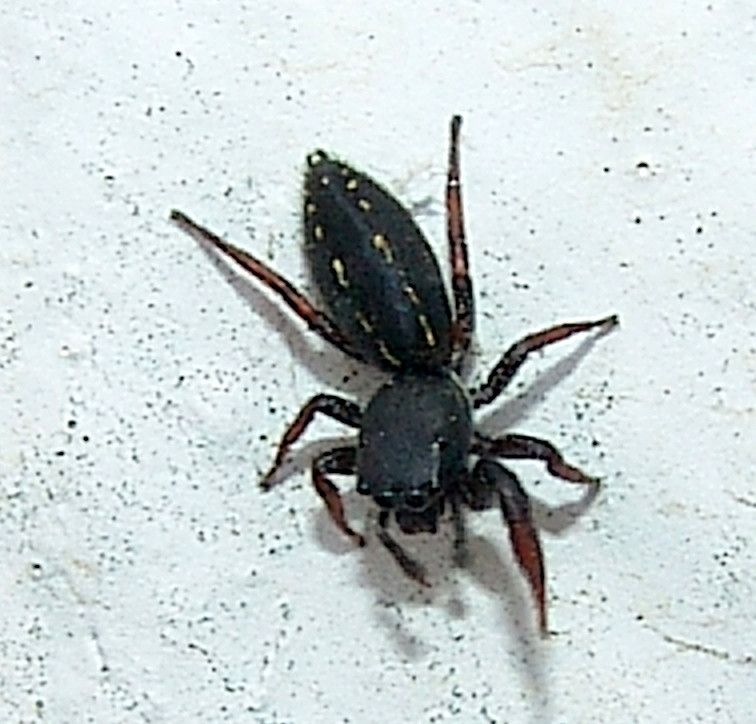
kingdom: Animalia
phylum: Arthropoda
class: Arachnida
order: Araneae
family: Salticidae
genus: Metacyrba
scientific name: Metacyrba taeniola
